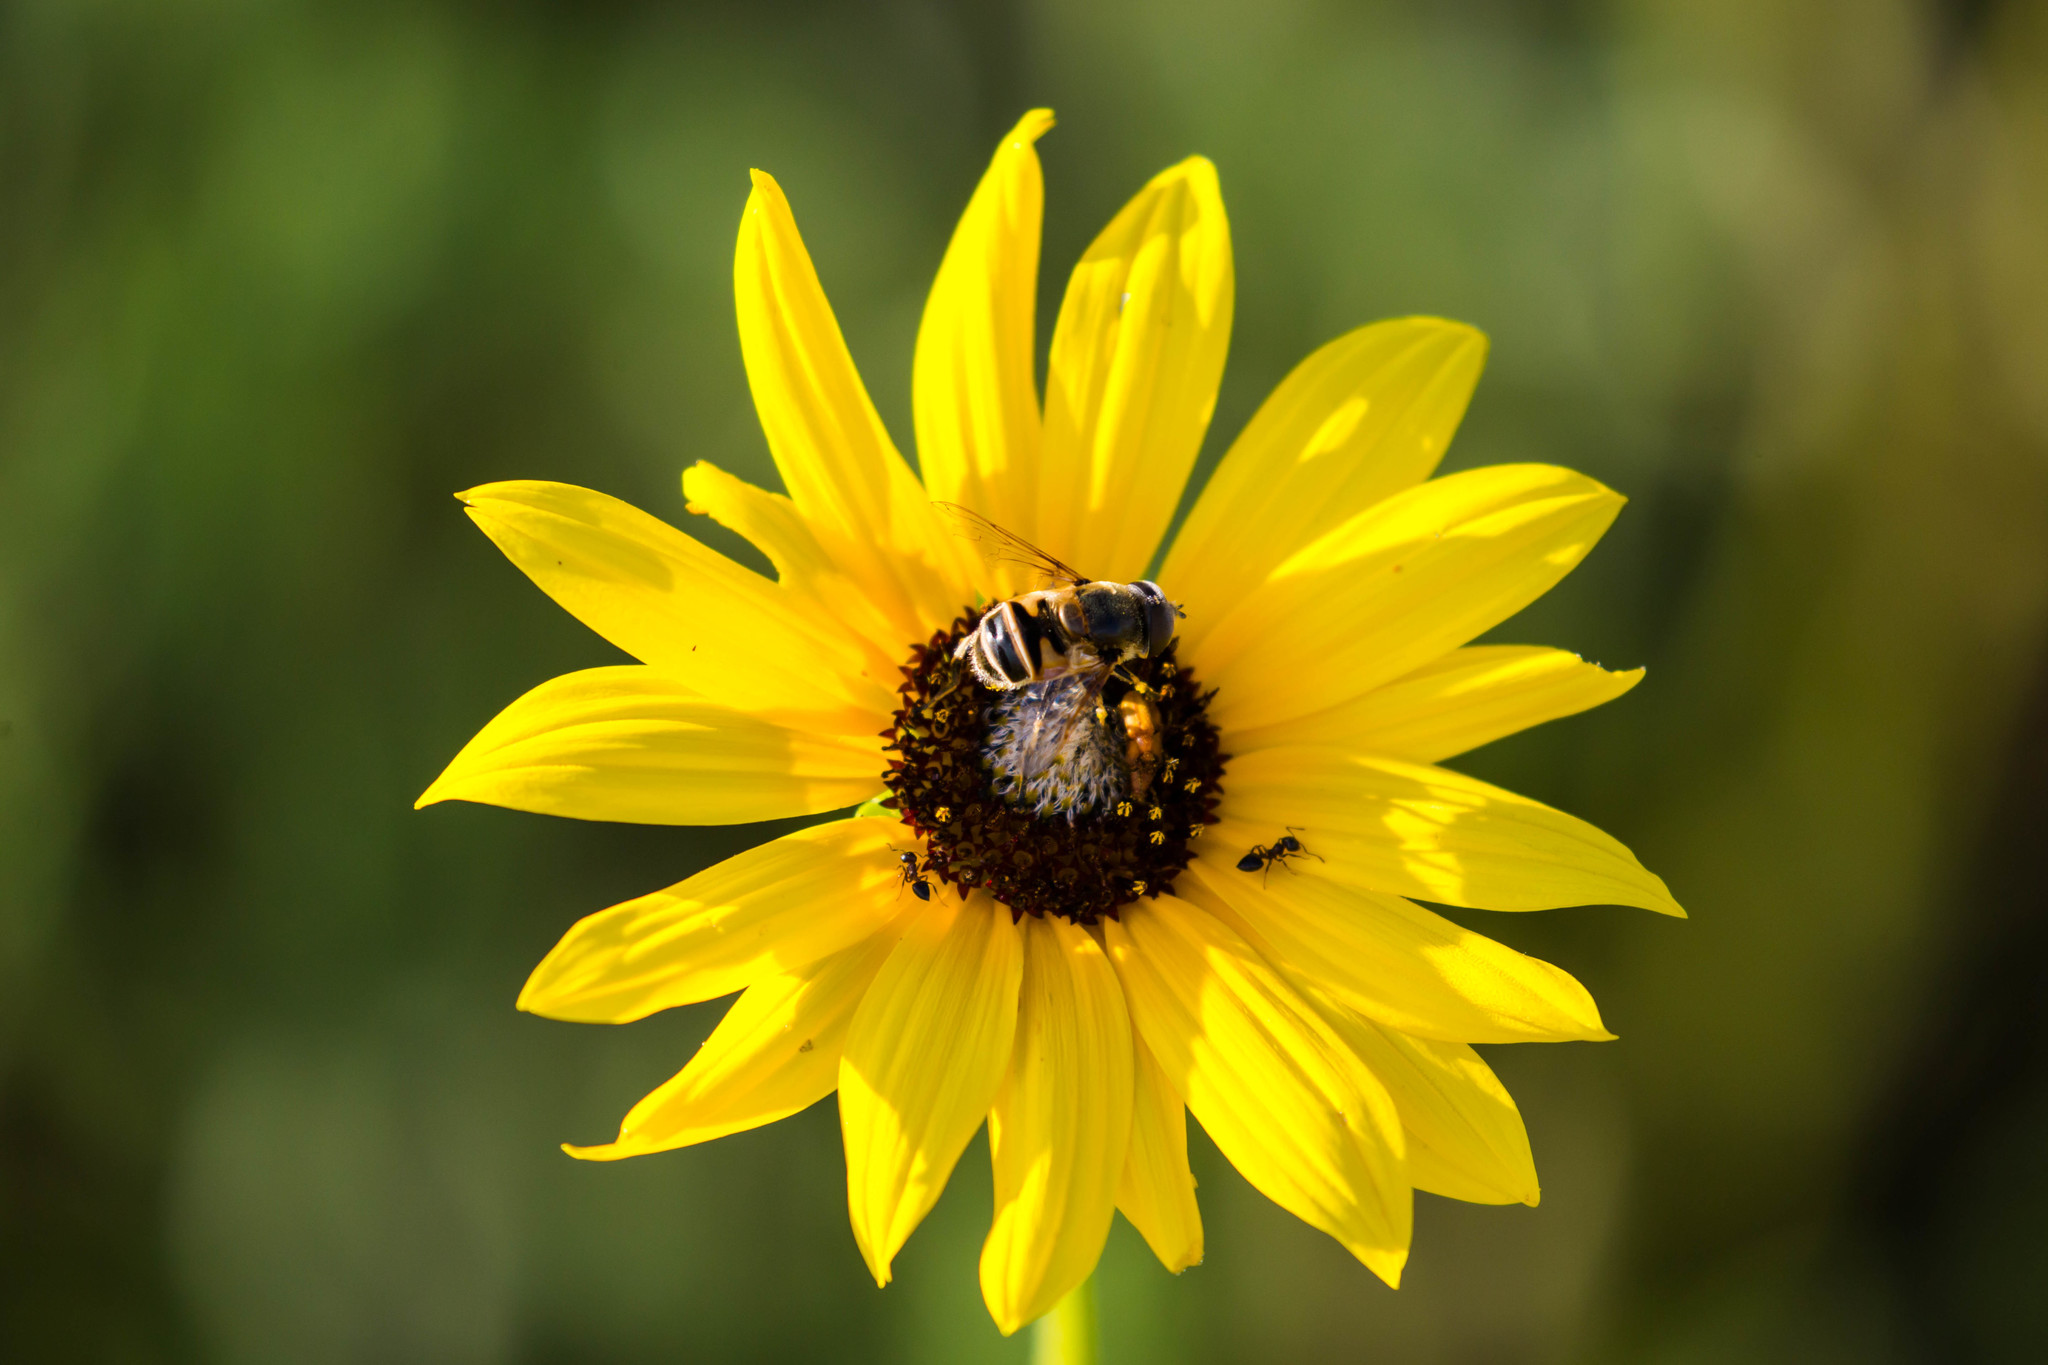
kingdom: Animalia
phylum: Arthropoda
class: Insecta
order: Diptera
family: Syrphidae
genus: Eristalis
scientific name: Eristalis hirta
